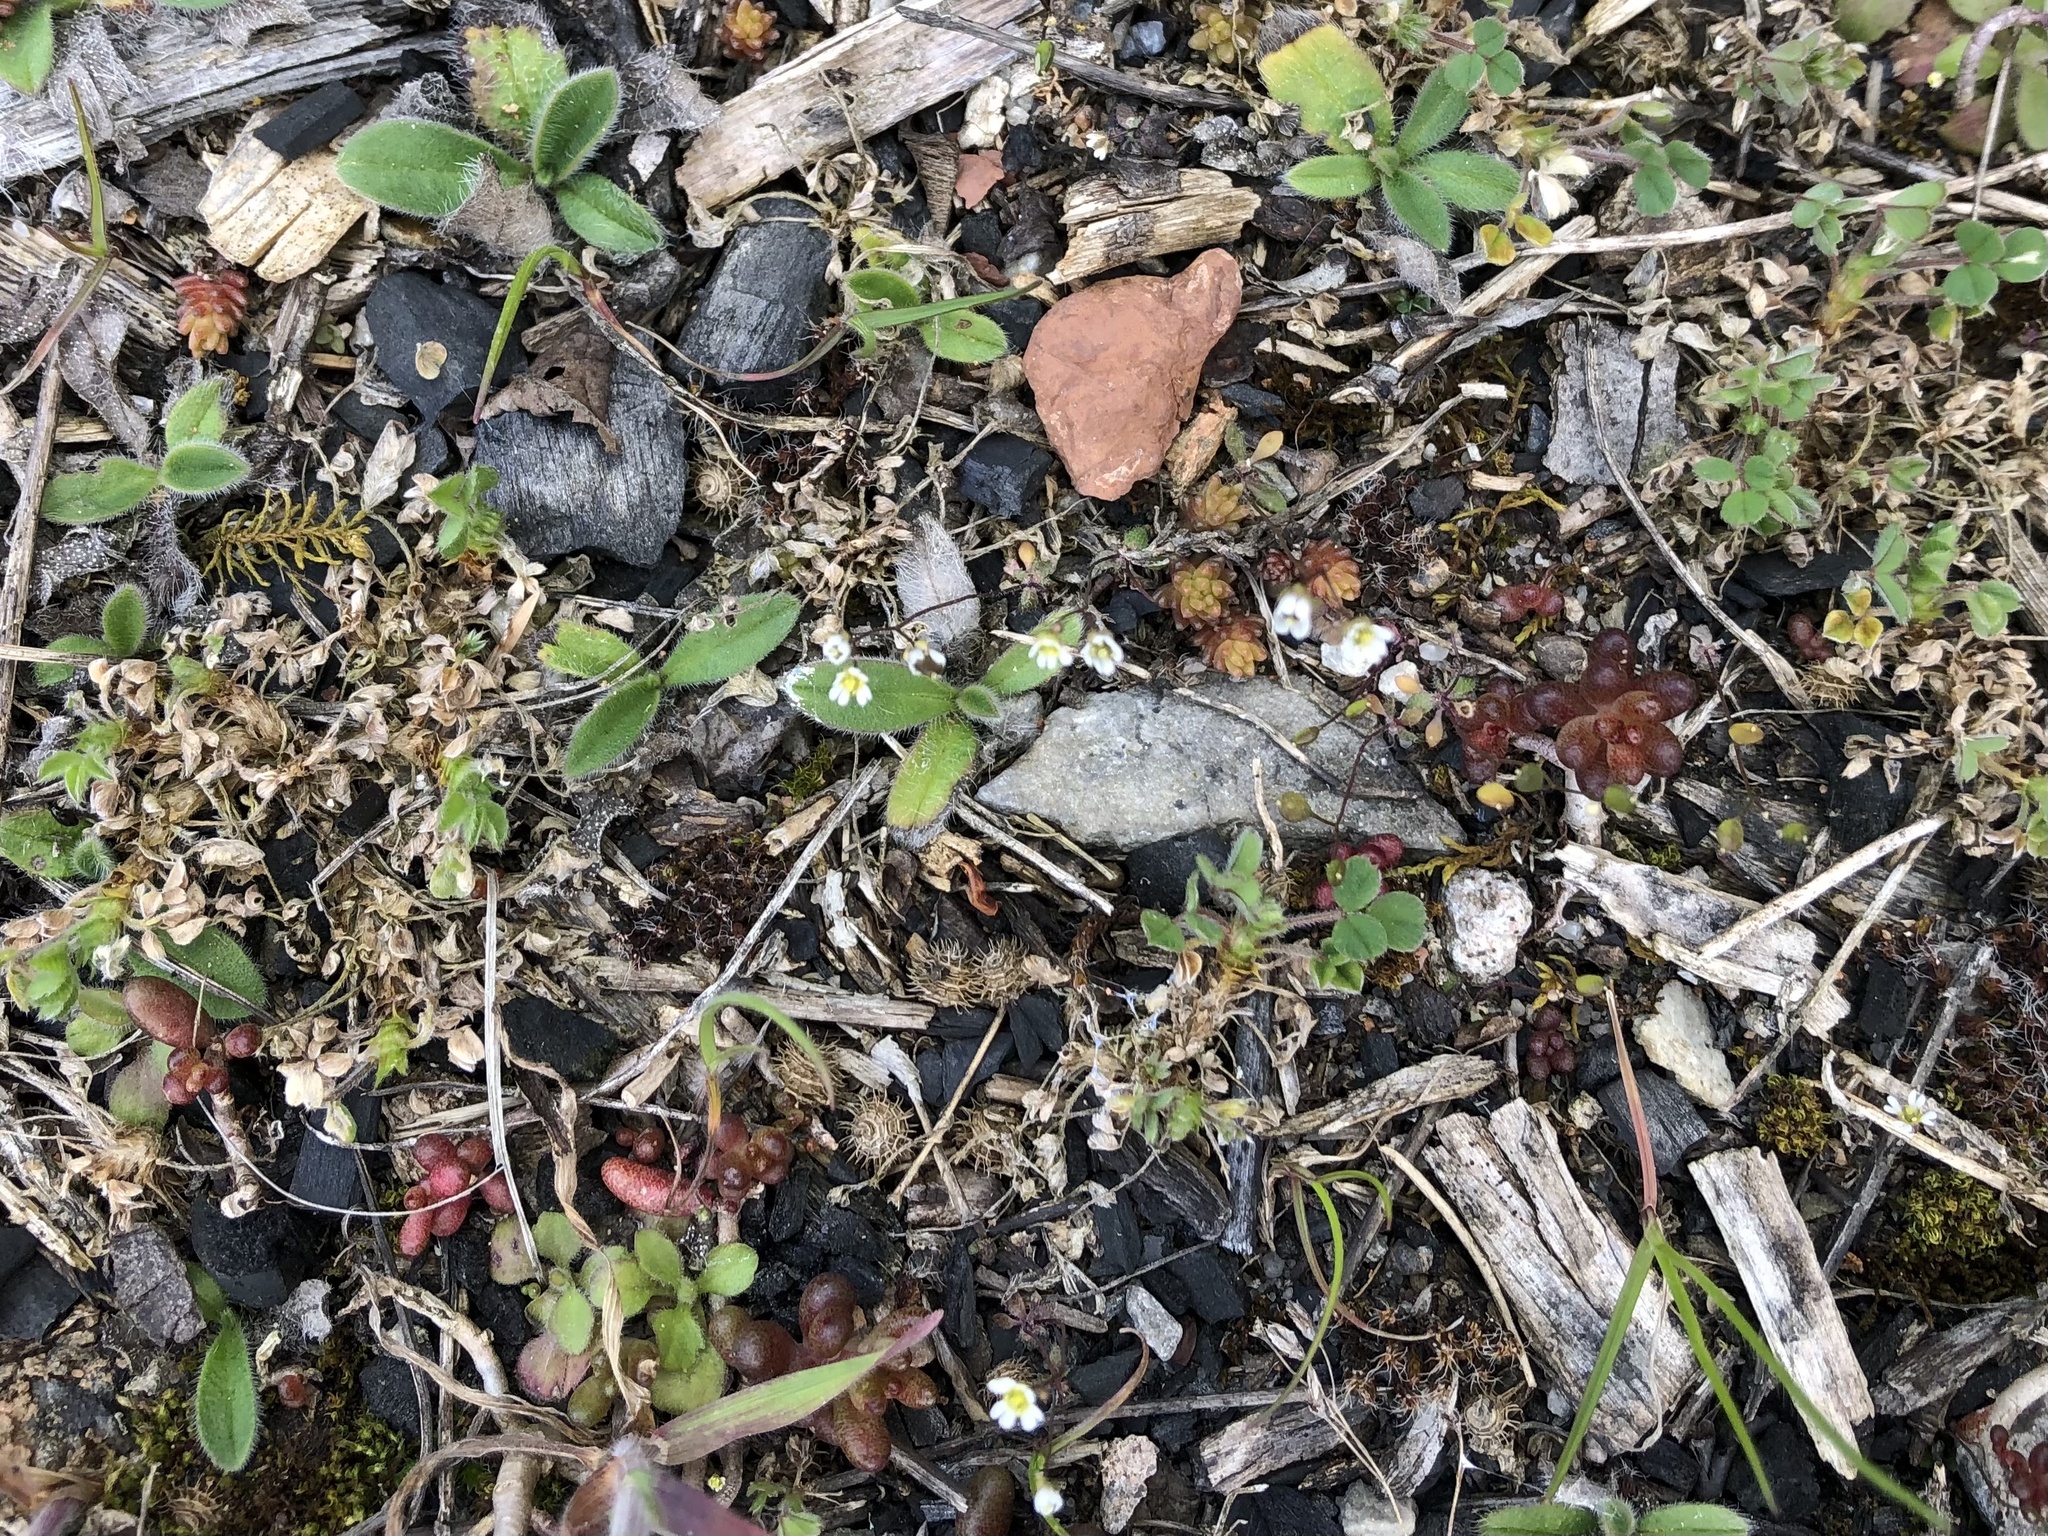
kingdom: Plantae
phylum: Tracheophyta
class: Magnoliopsida
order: Brassicales
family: Brassicaceae
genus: Draba
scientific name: Draba verna
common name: Spring draba
